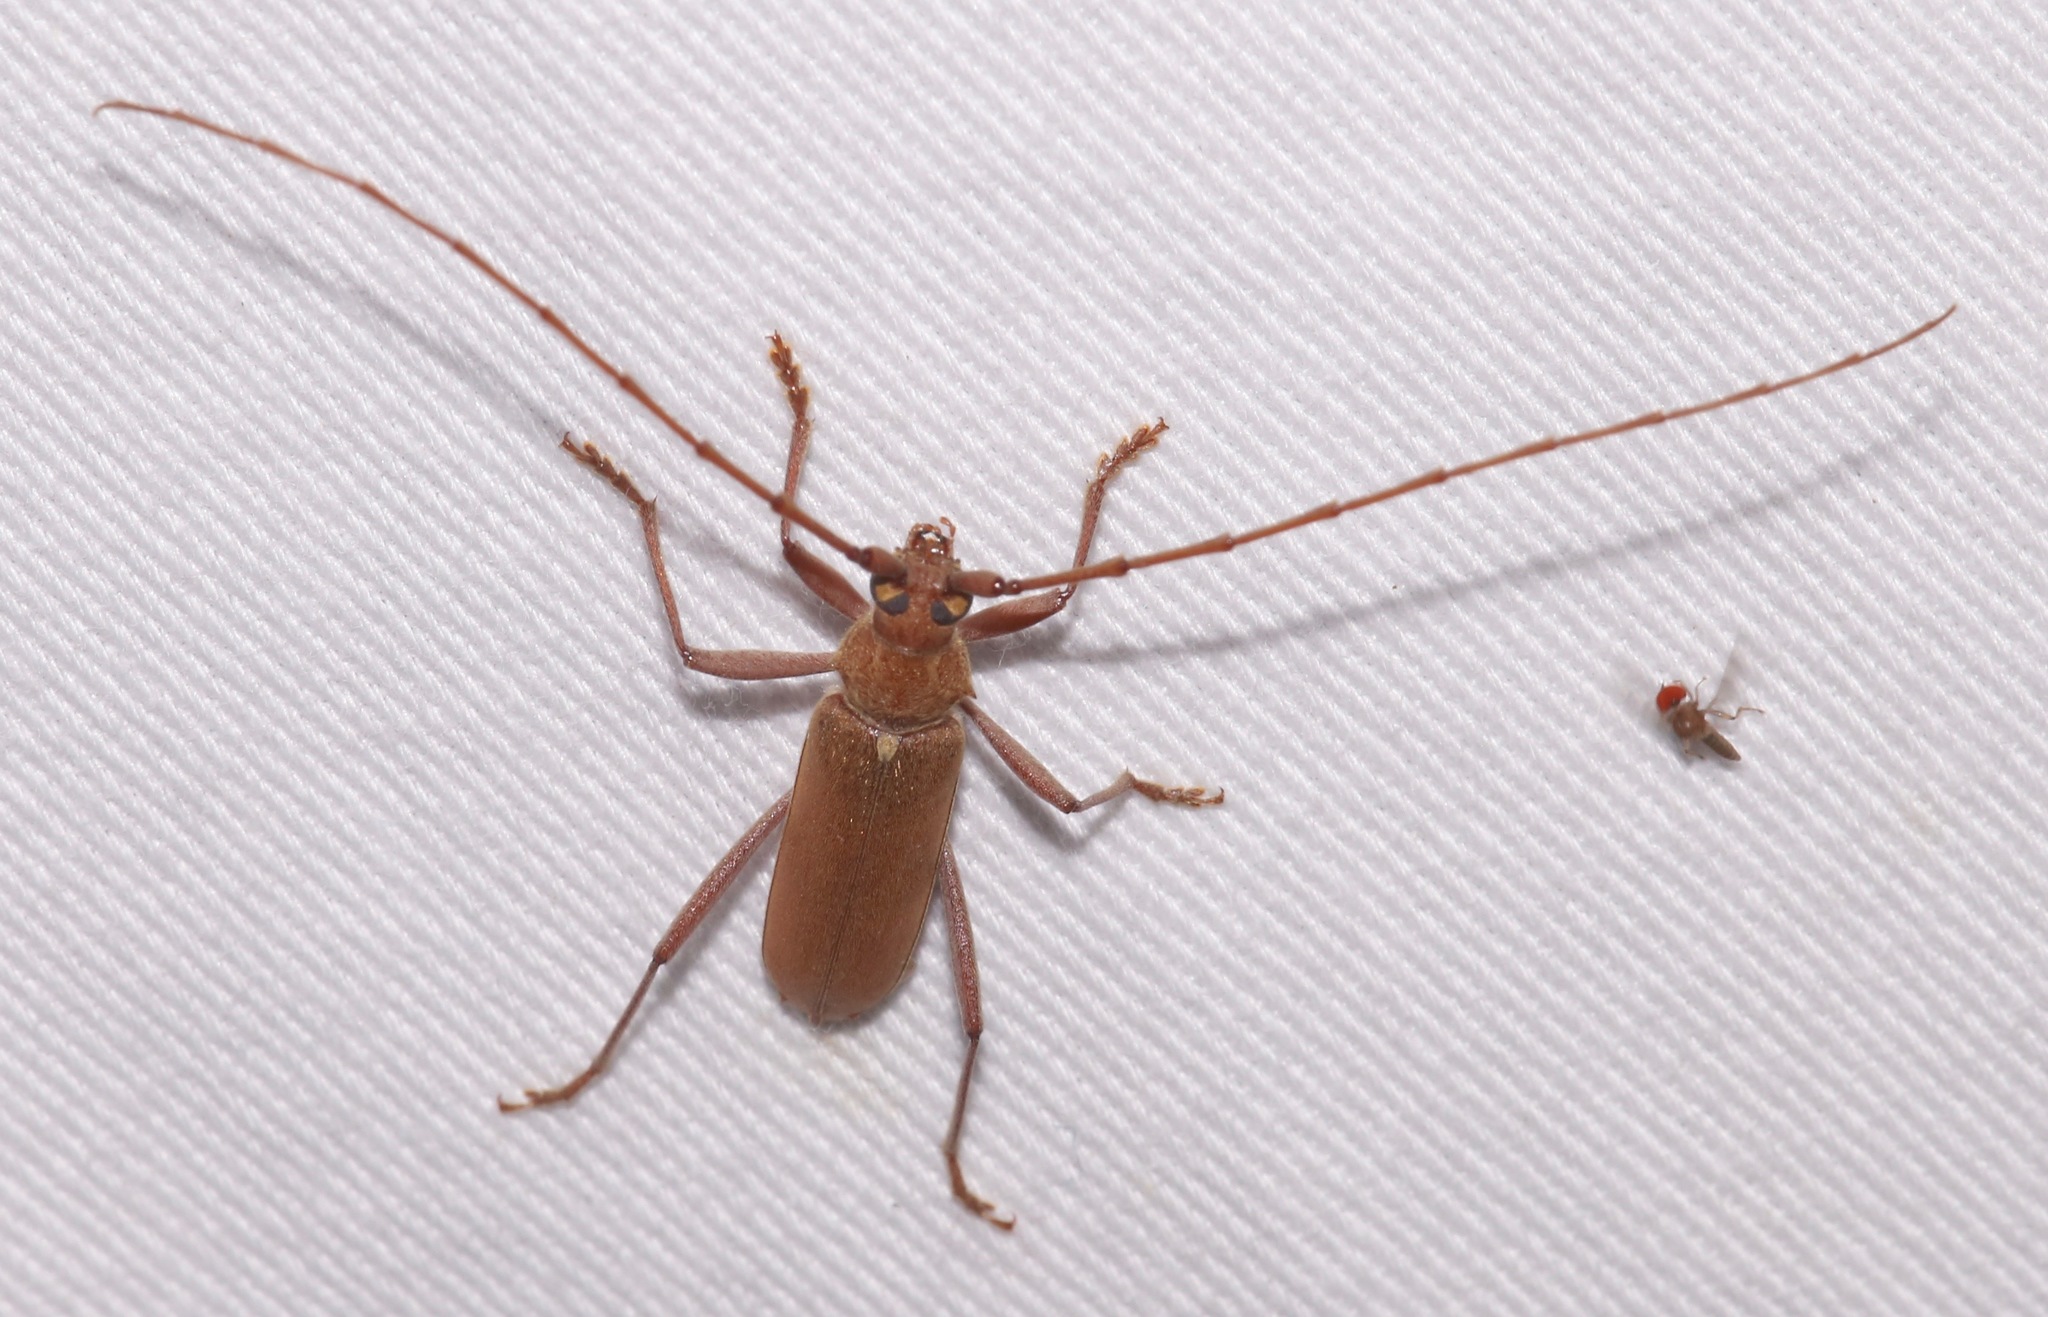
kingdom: Animalia
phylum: Arthropoda
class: Insecta
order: Coleoptera
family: Cerambycidae
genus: Knulliana
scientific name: Knulliana cincta
